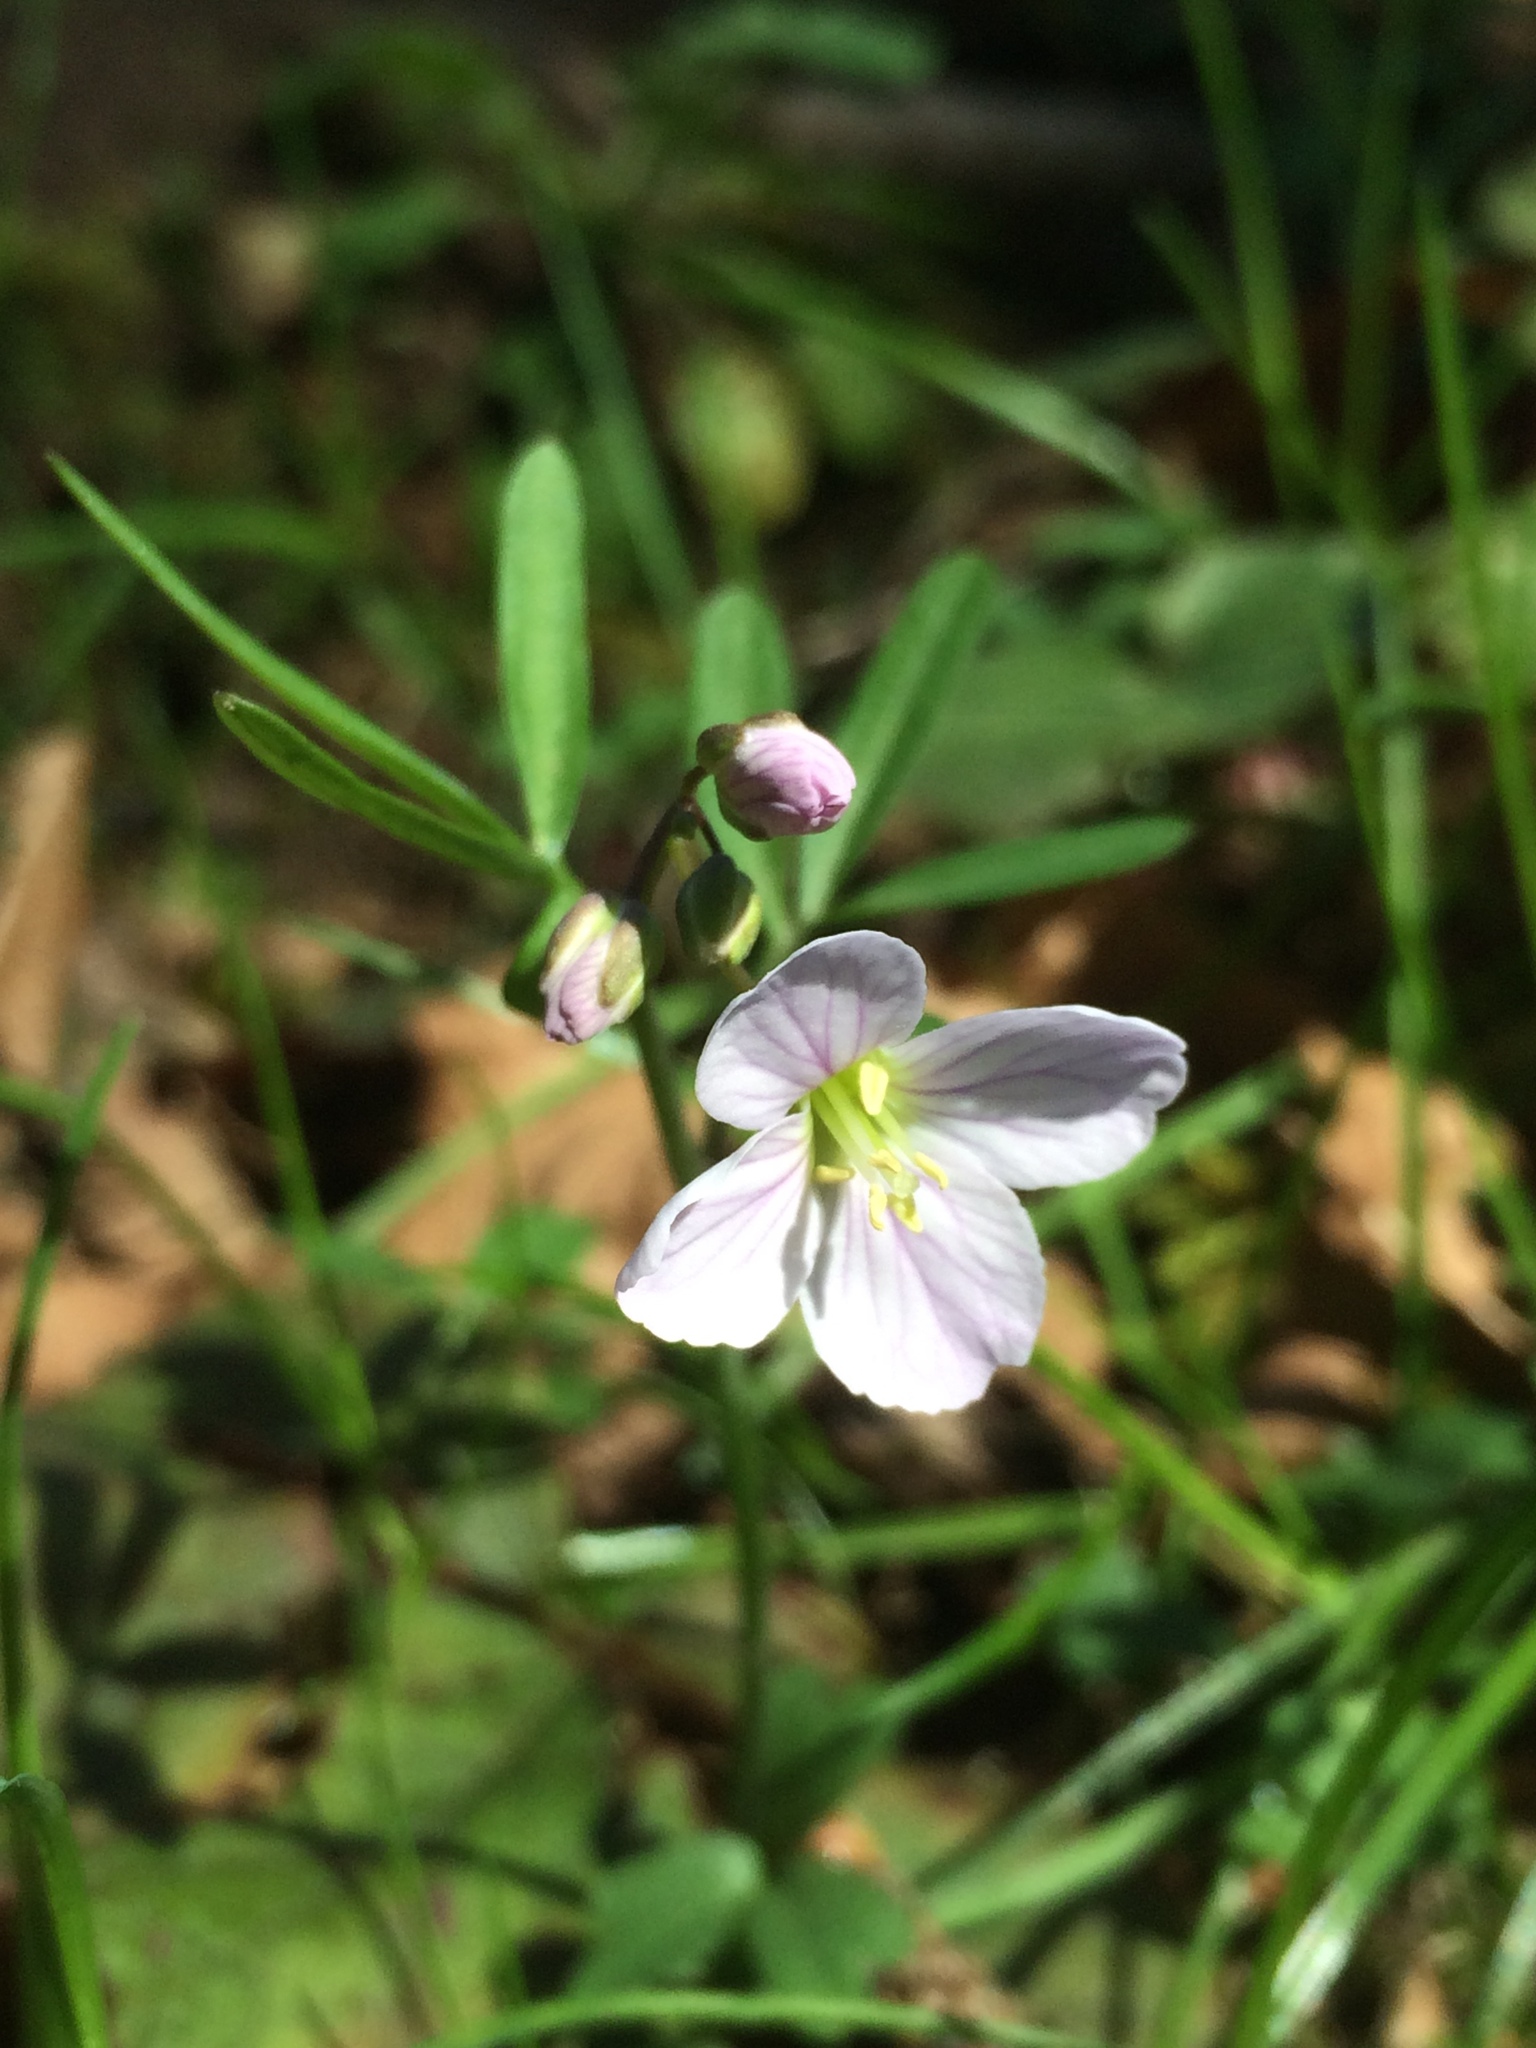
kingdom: Plantae
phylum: Tracheophyta
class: Magnoliopsida
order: Brassicales
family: Brassicaceae
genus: Cardamine
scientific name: Cardamine nuttallii
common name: Nuttall's toothwort
